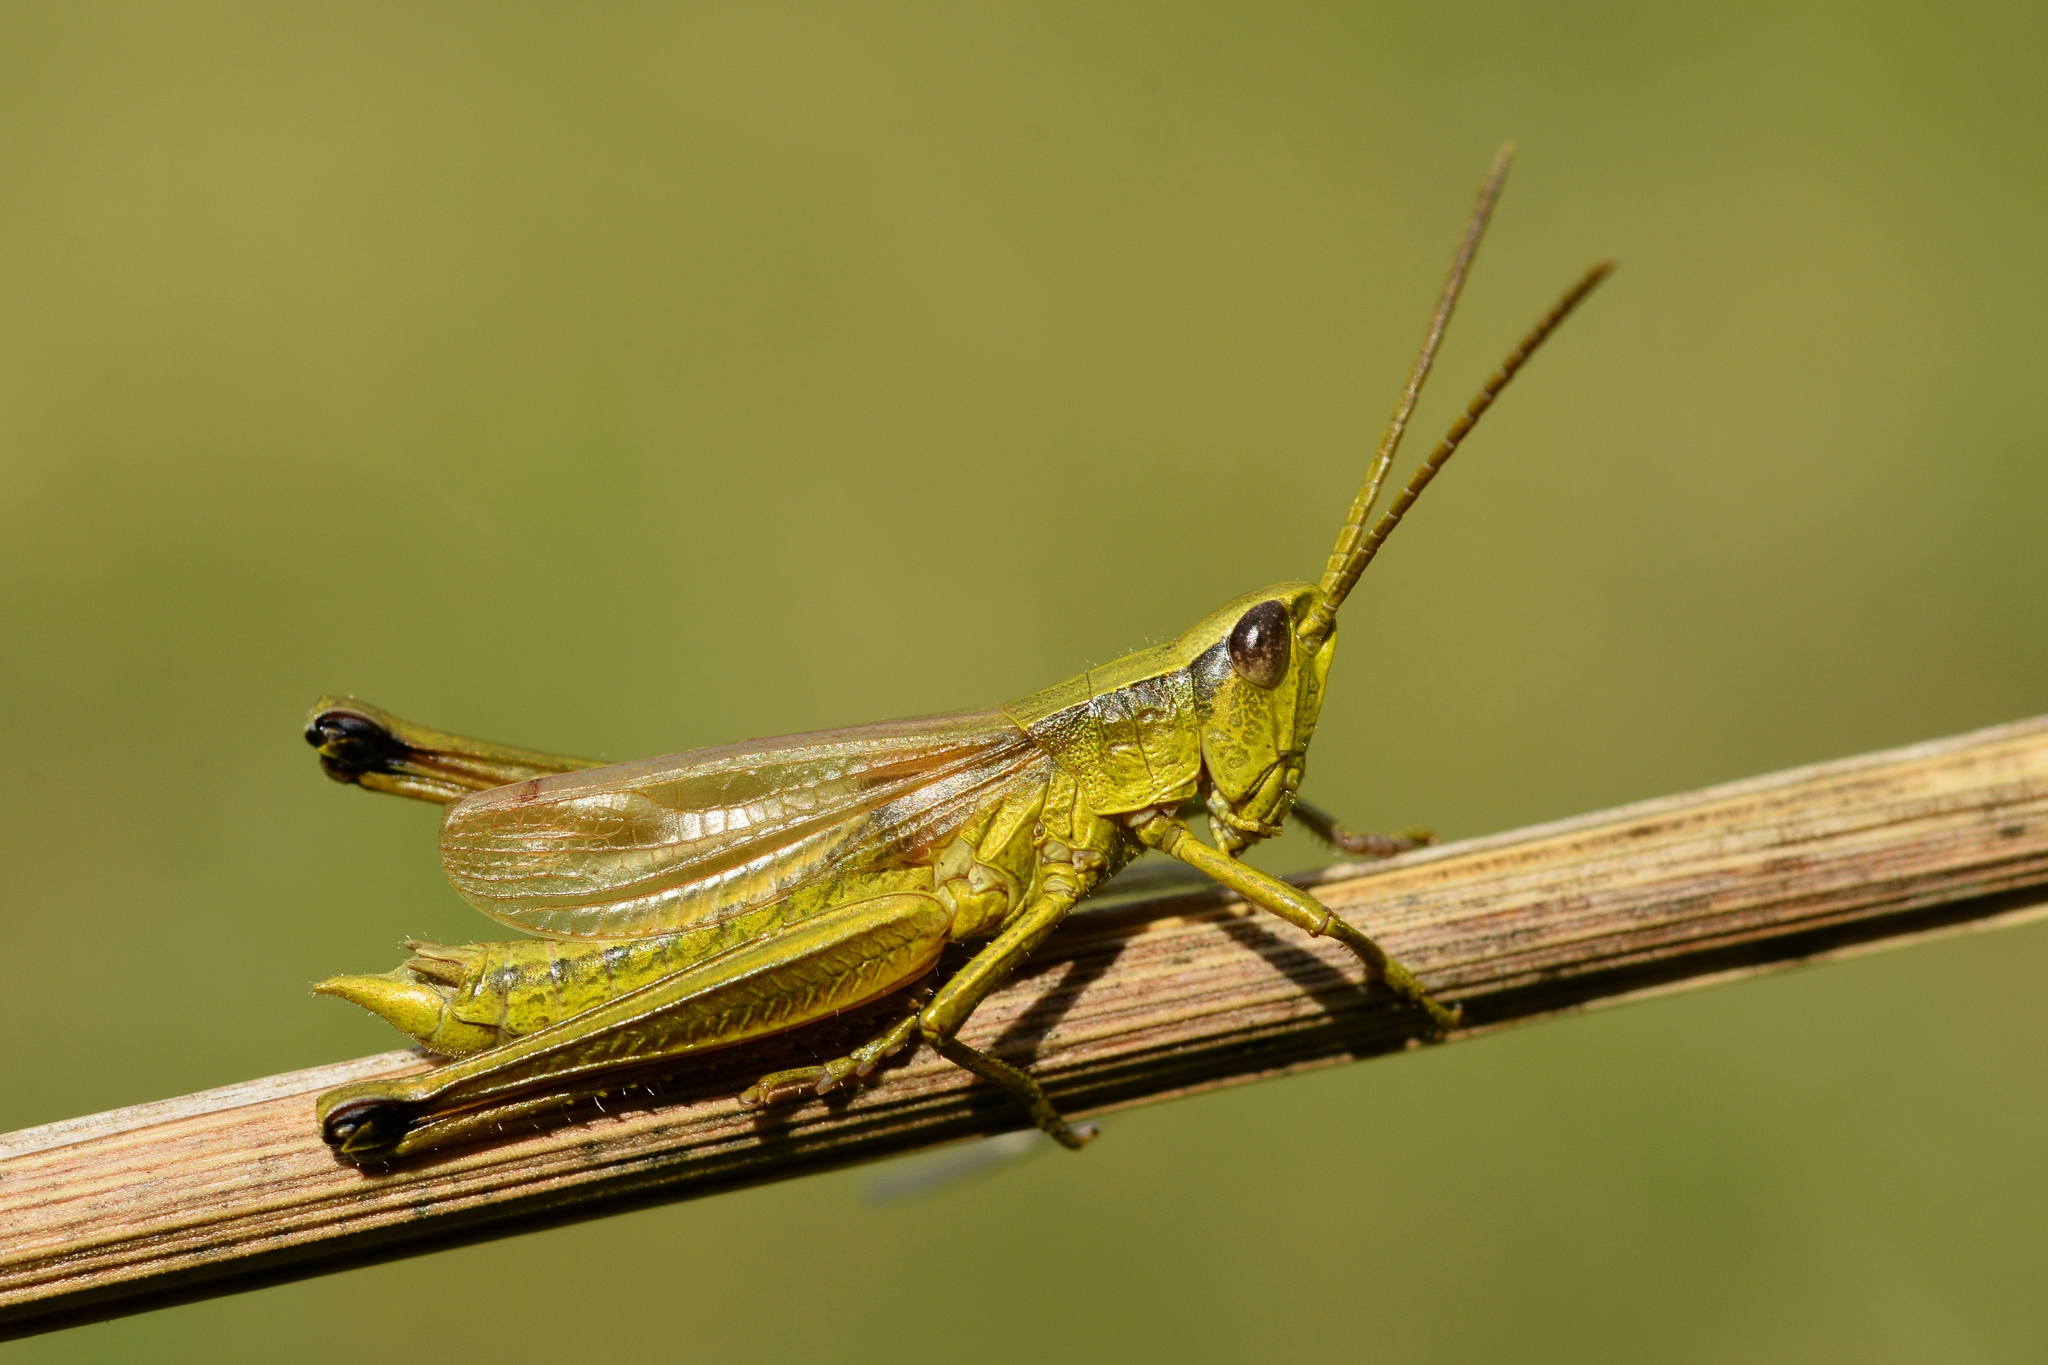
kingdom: Animalia
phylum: Arthropoda
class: Insecta
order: Orthoptera
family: Acrididae
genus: Chrysochraon
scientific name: Chrysochraon dispar
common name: Large gold grasshopper
